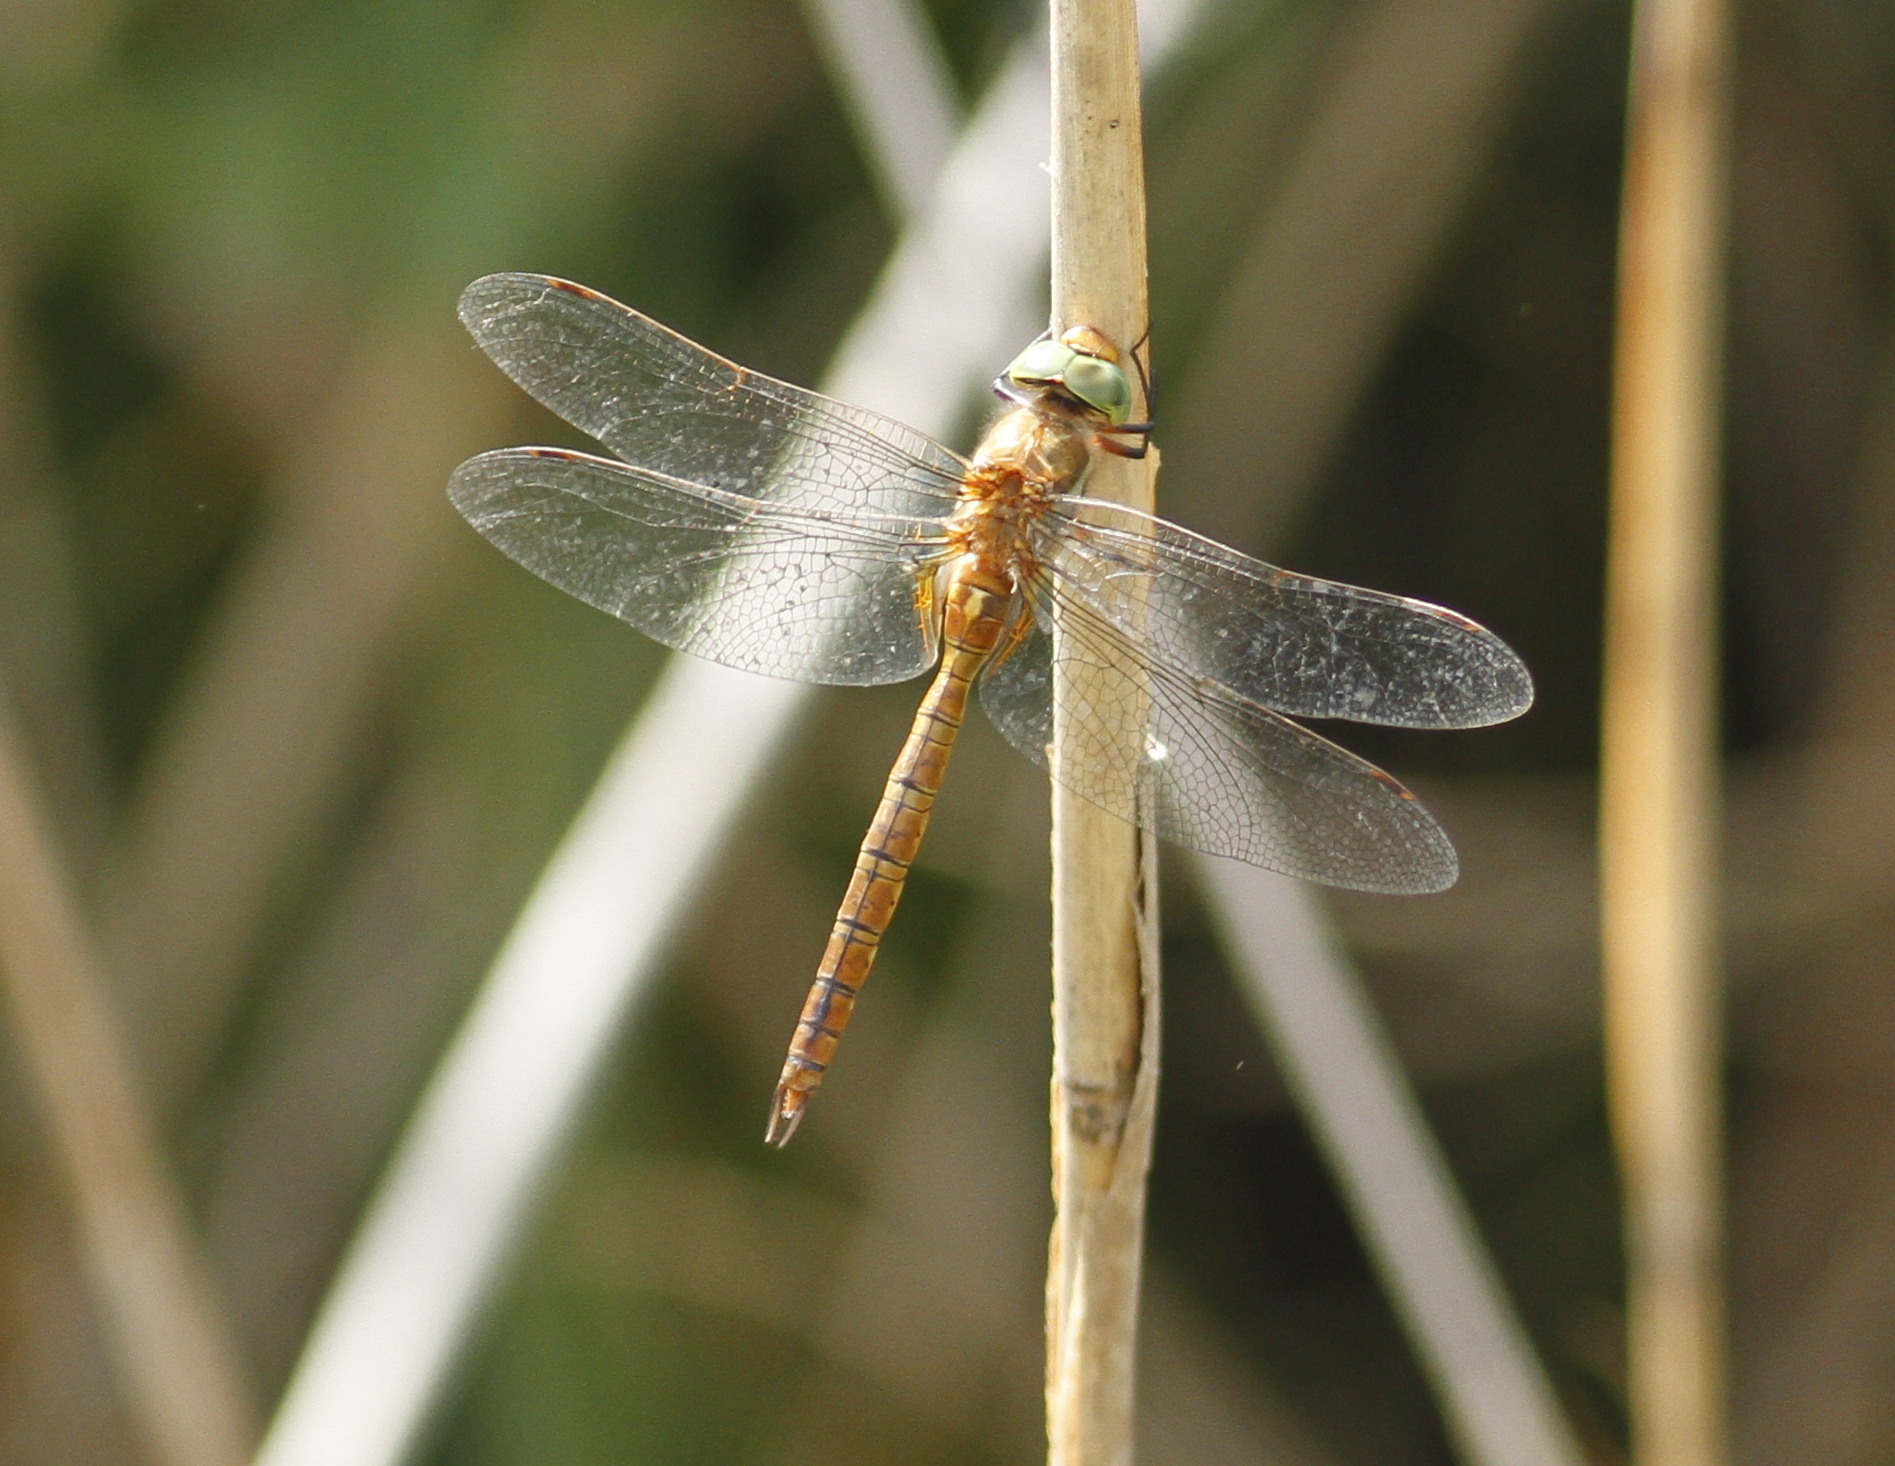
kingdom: Animalia
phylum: Arthropoda
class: Insecta
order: Odonata
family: Aeshnidae
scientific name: Aeshnidae
